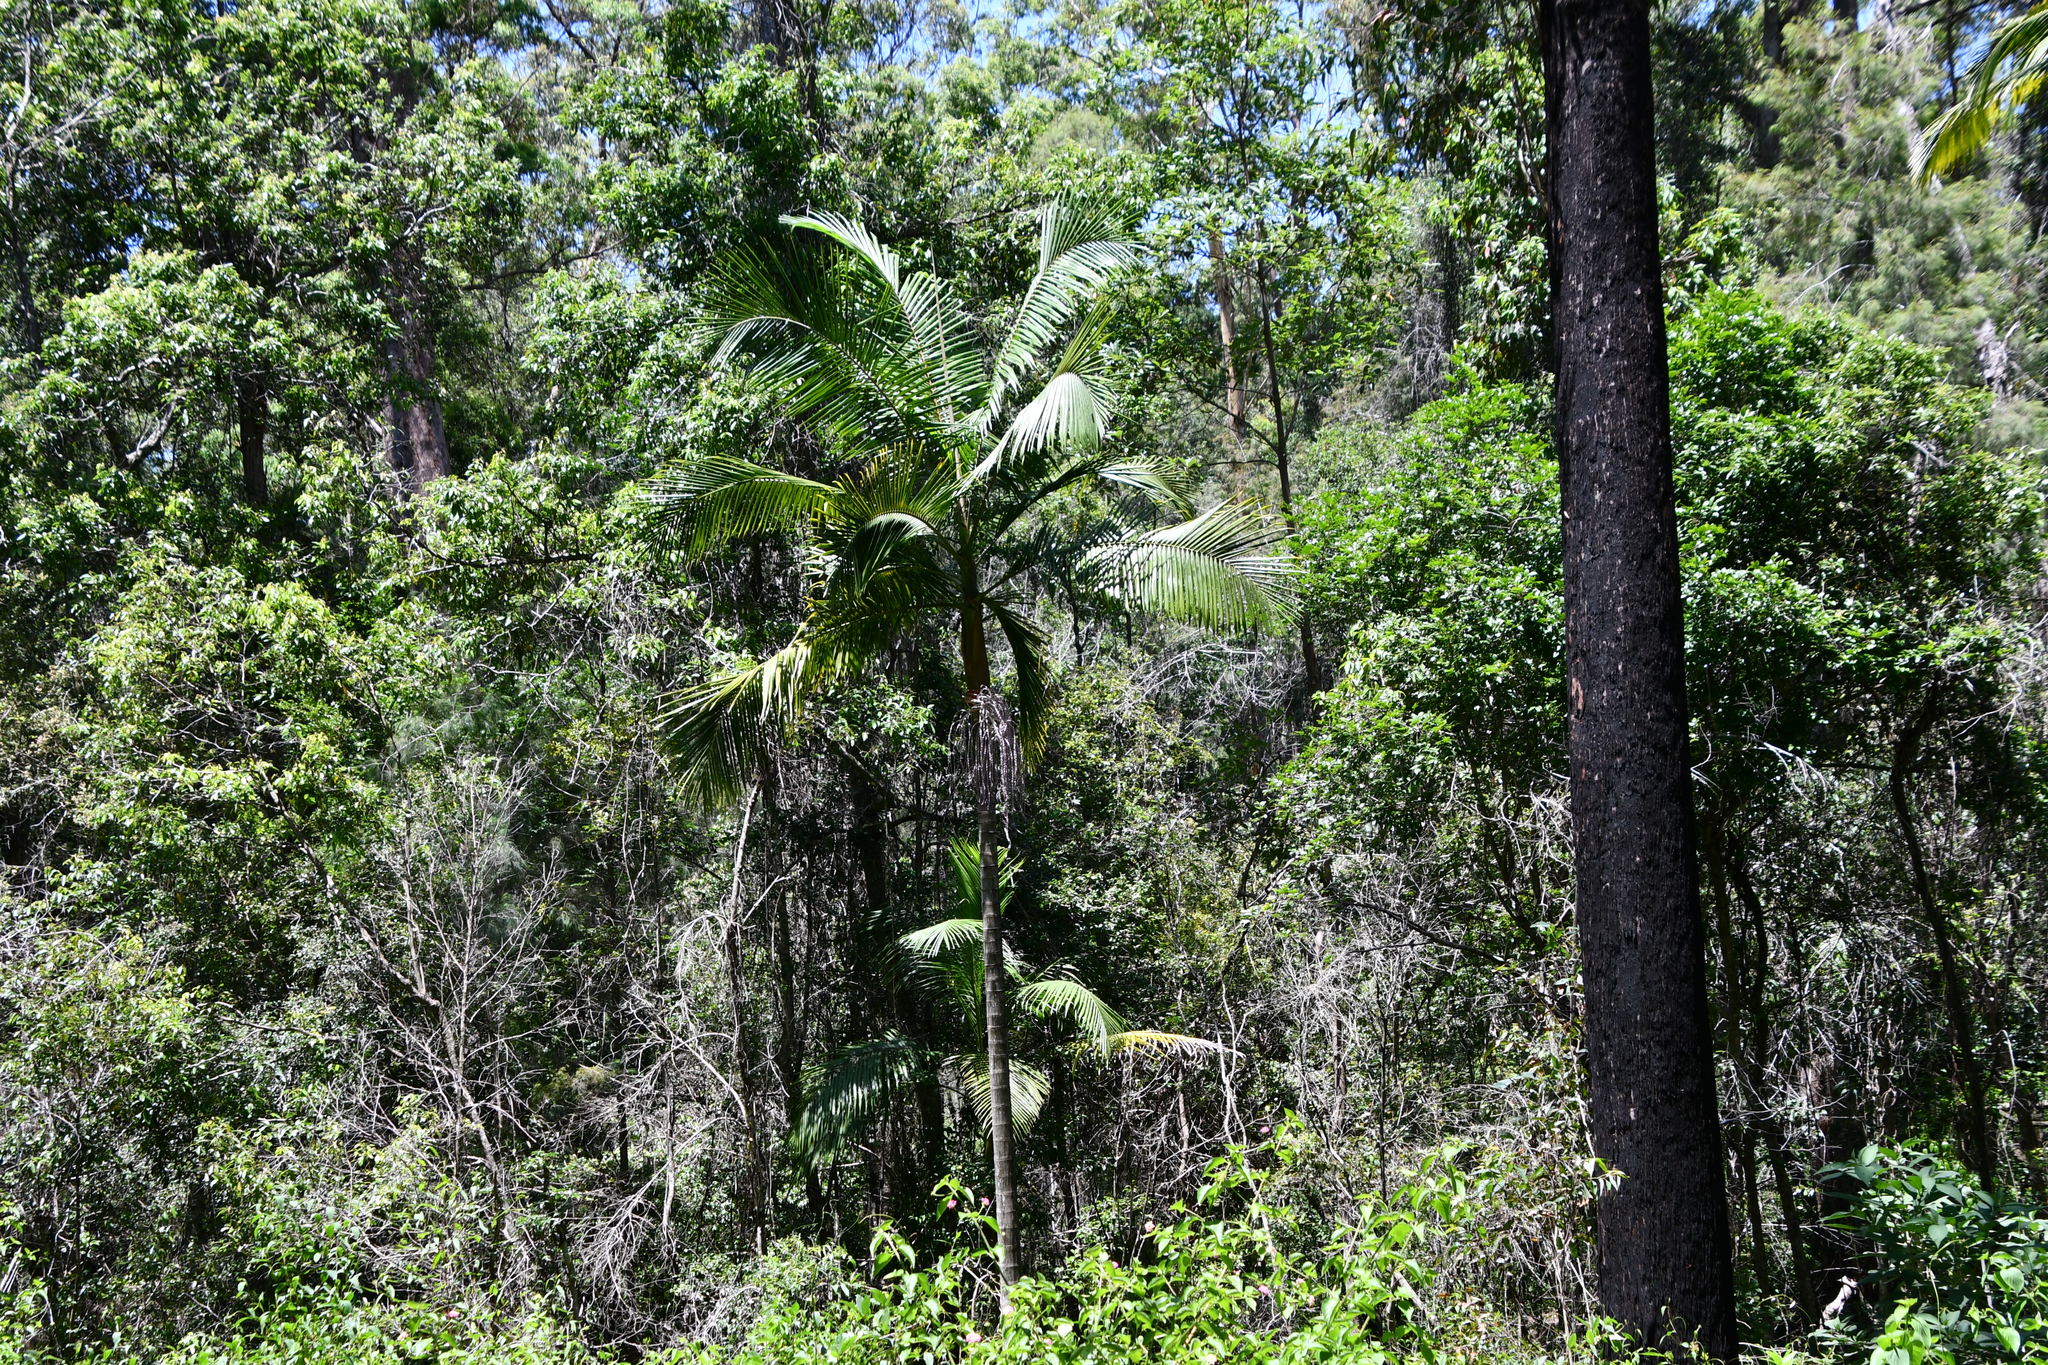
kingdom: Plantae
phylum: Tracheophyta
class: Liliopsida
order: Arecales
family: Arecaceae
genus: Archontophoenix
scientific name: Archontophoenix cunninghamiana
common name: Piccabeen bangalow palm
